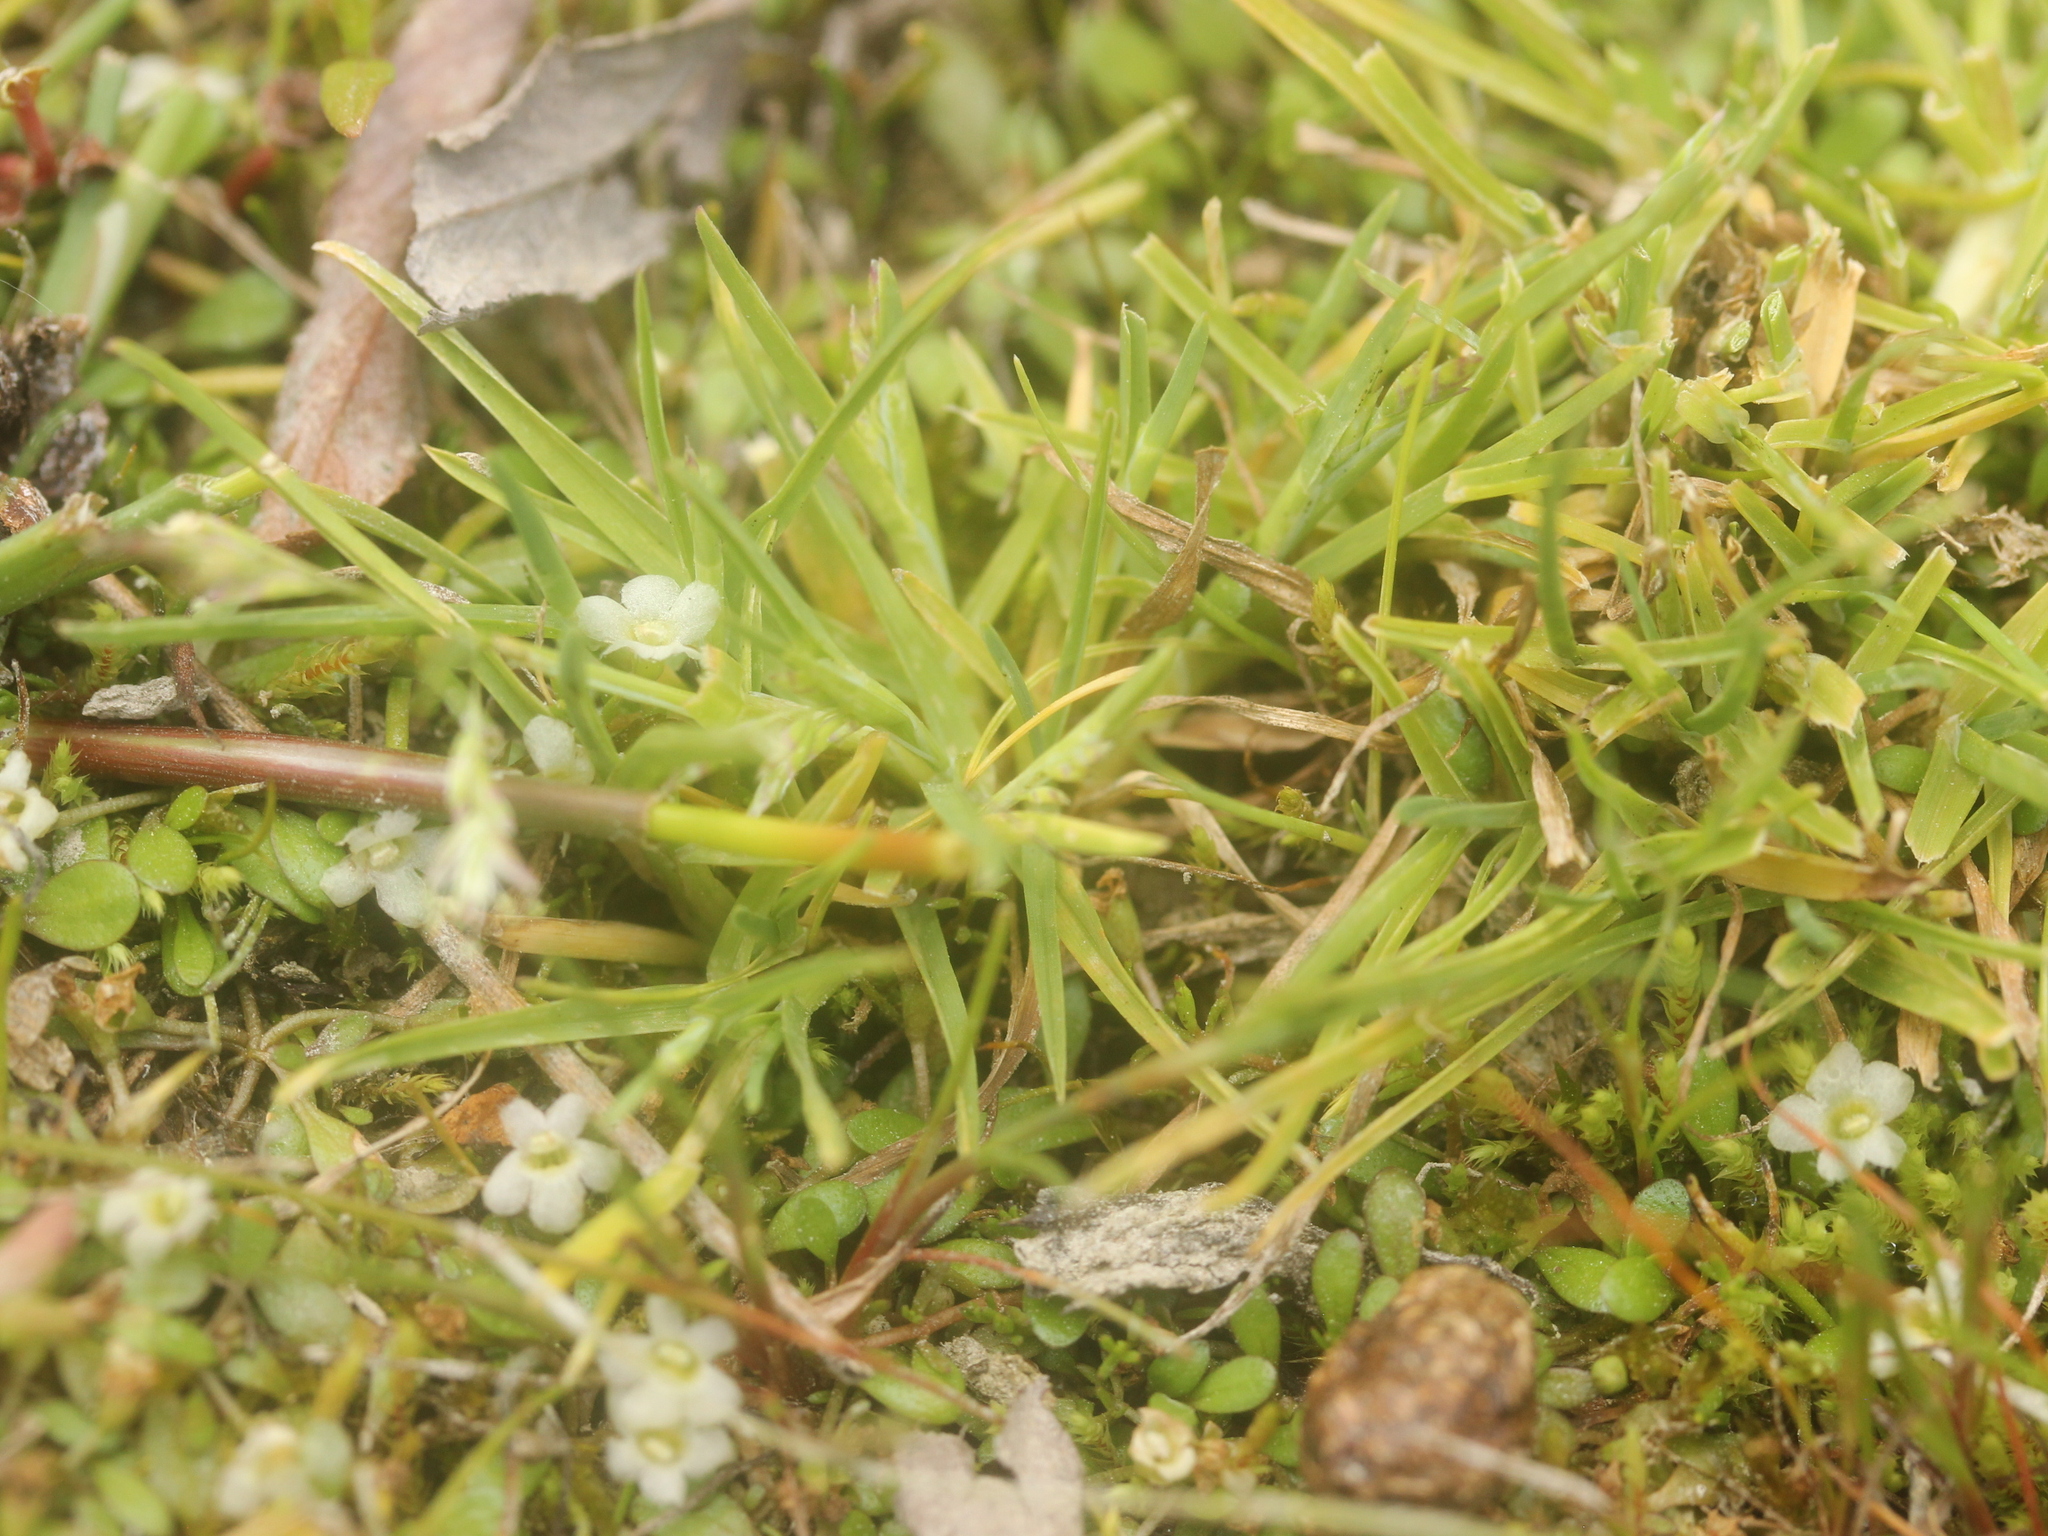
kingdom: Plantae
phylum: Tracheophyta
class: Liliopsida
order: Poales
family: Poaceae
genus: Poa
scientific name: Poa annua
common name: Annual bluegrass
